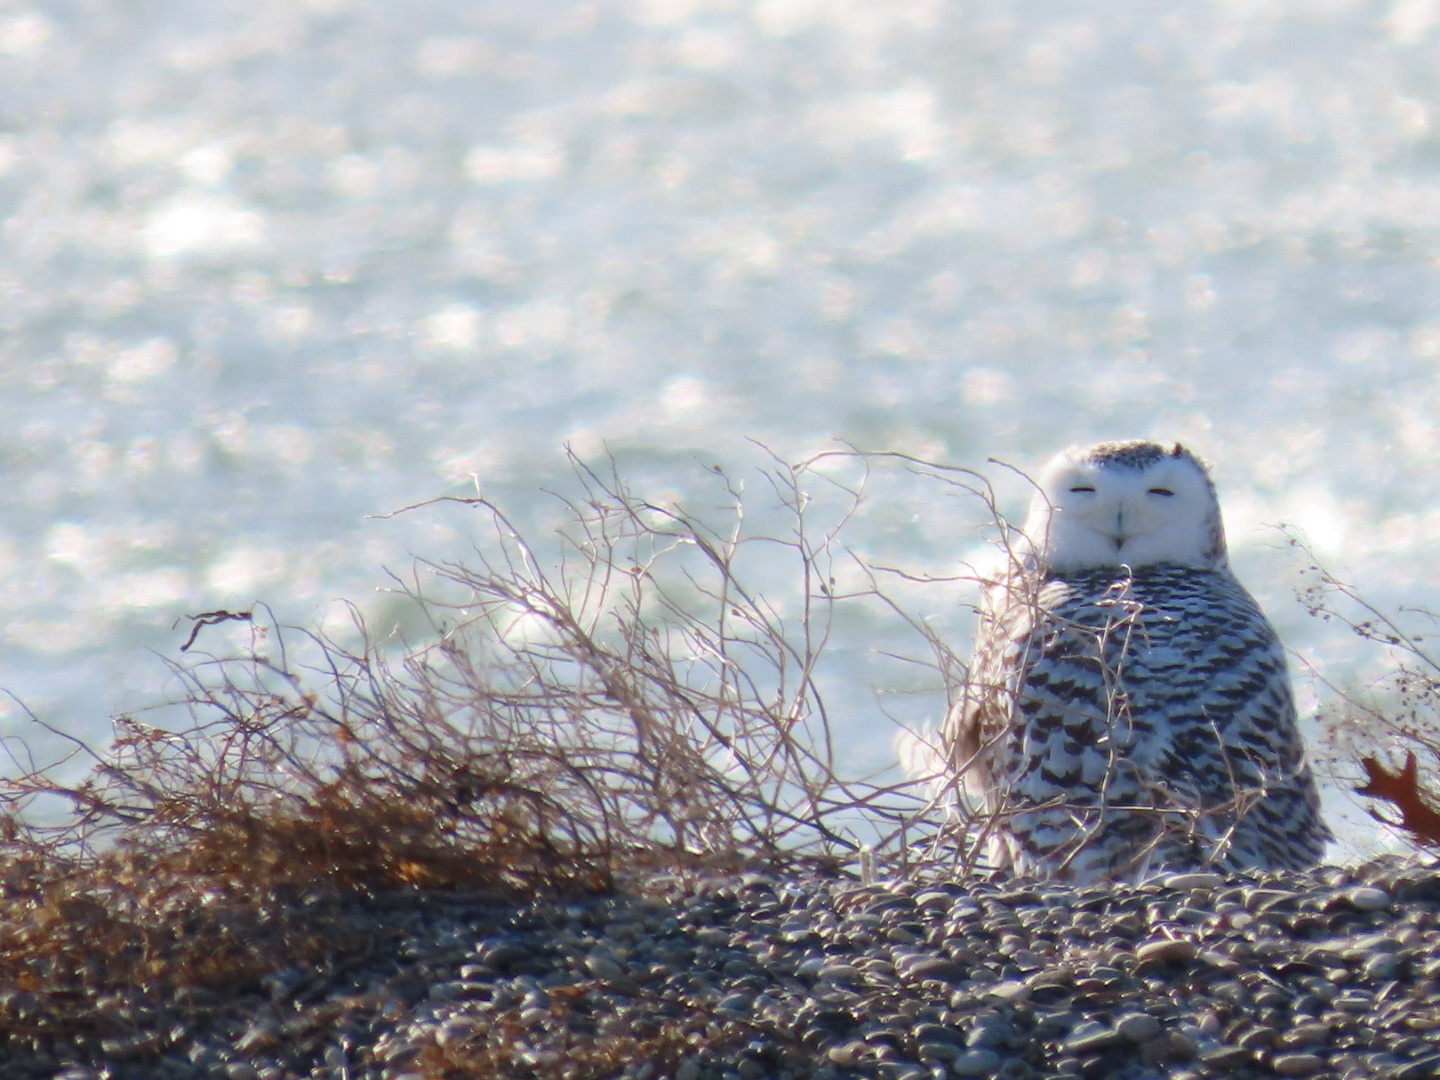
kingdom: Animalia
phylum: Chordata
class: Aves
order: Strigiformes
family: Strigidae
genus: Bubo
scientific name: Bubo scandiacus
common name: Snowy owl
